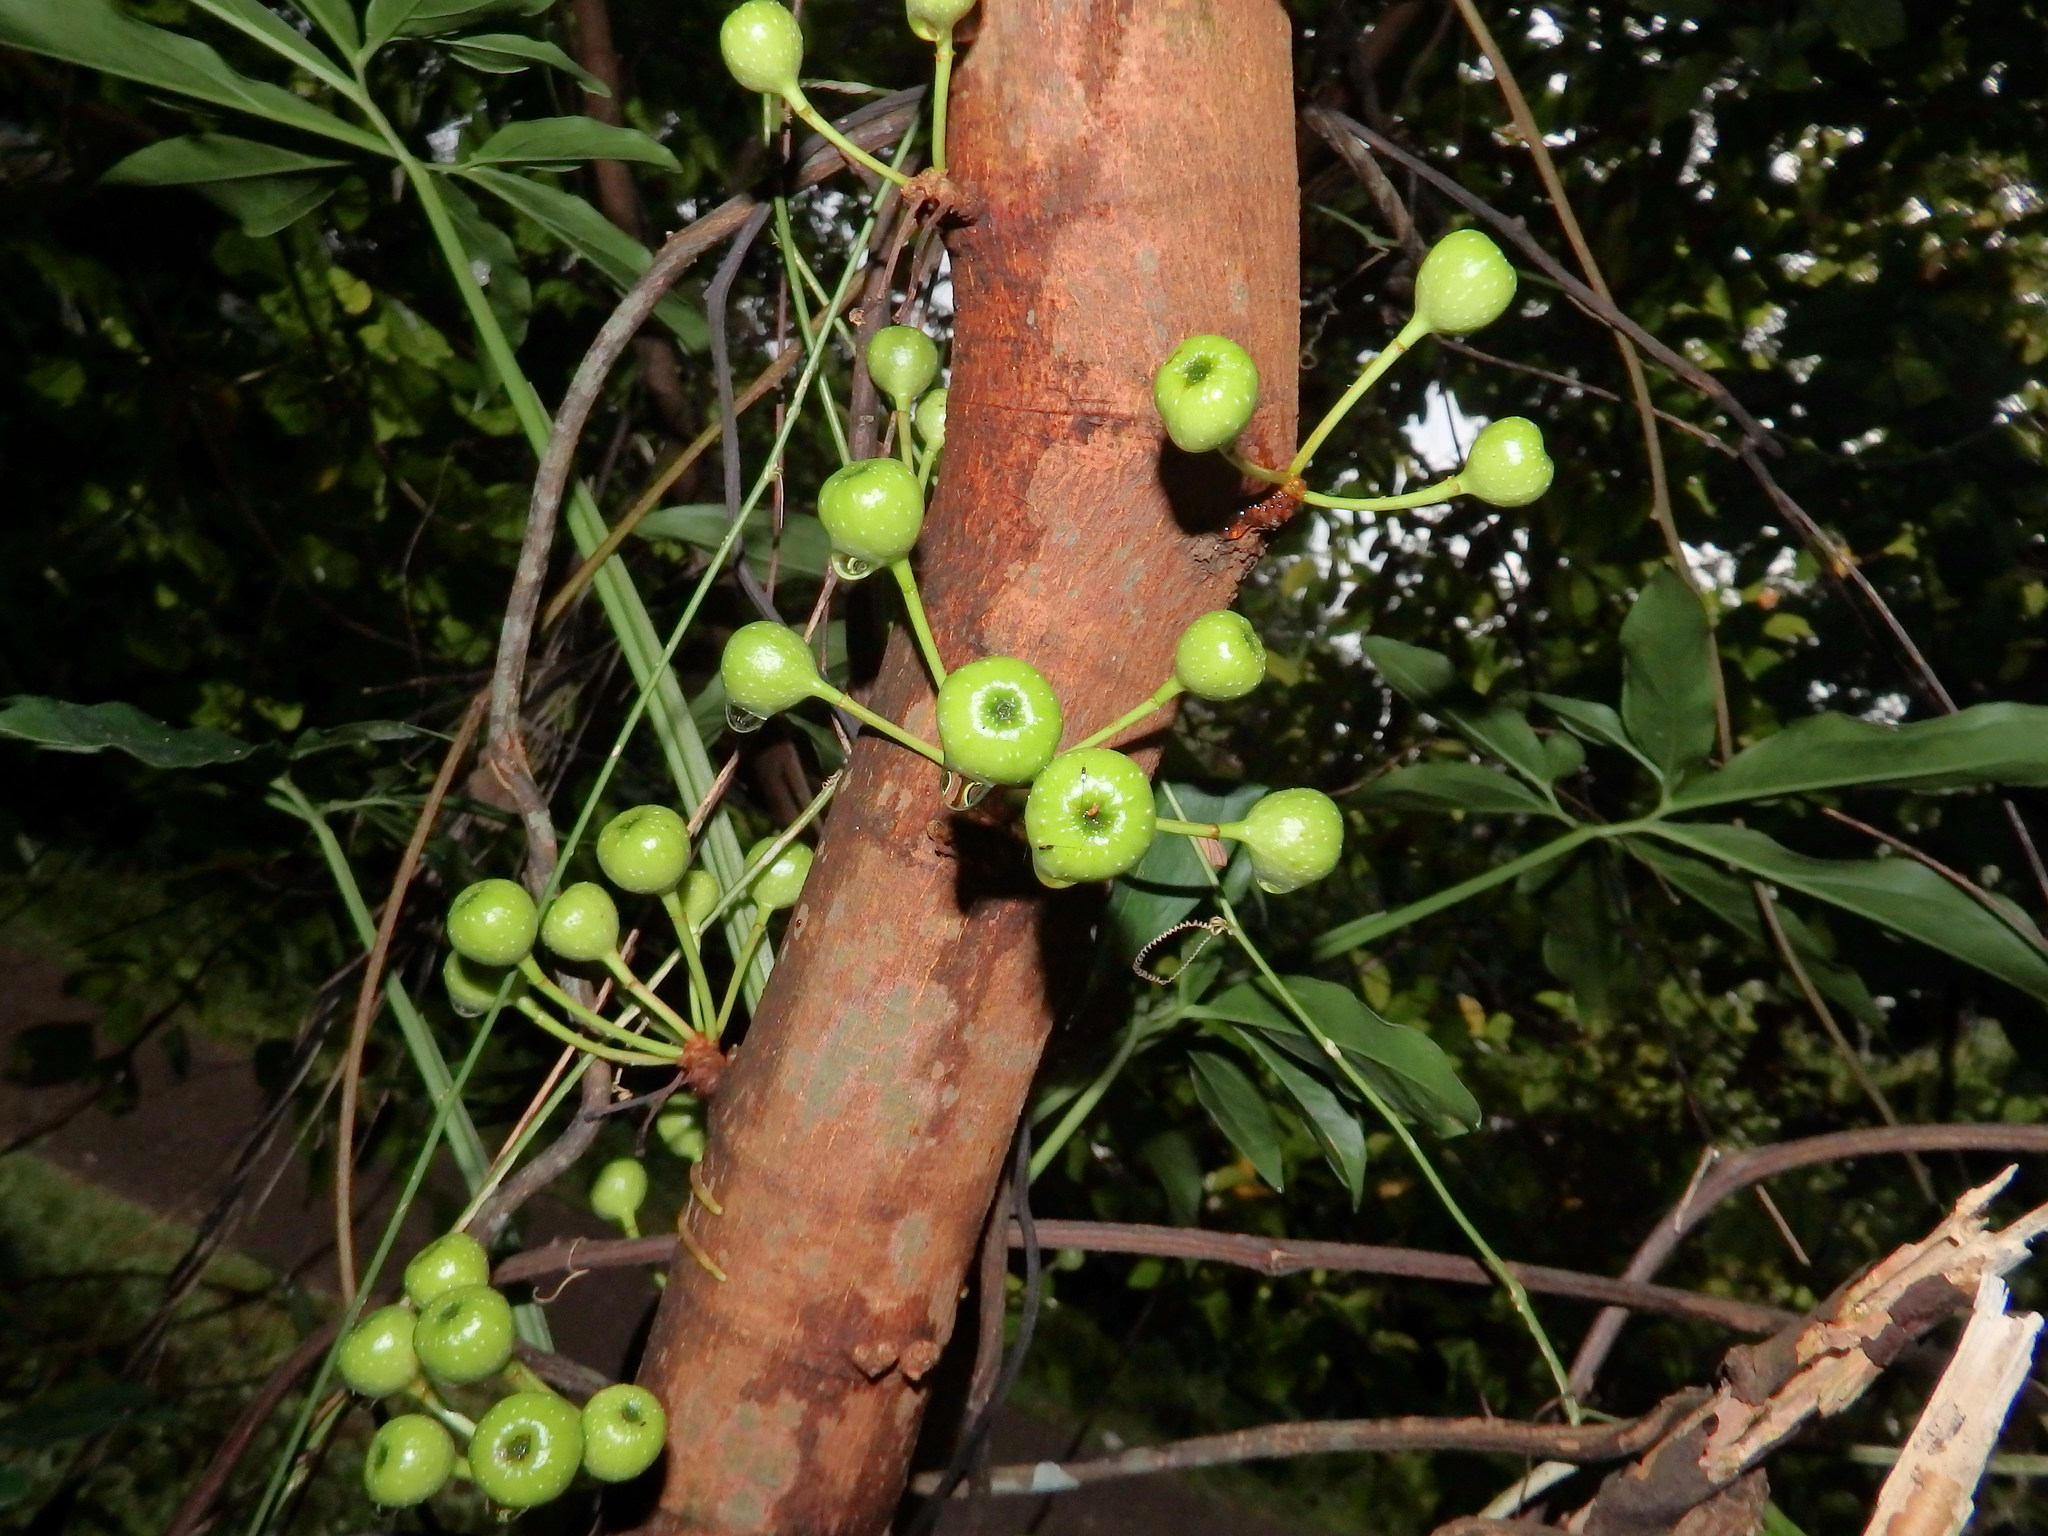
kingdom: Plantae
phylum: Tracheophyta
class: Magnoliopsida
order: Rosales
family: Moraceae
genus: Ficus
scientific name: Ficus fistulosa
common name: Figs
